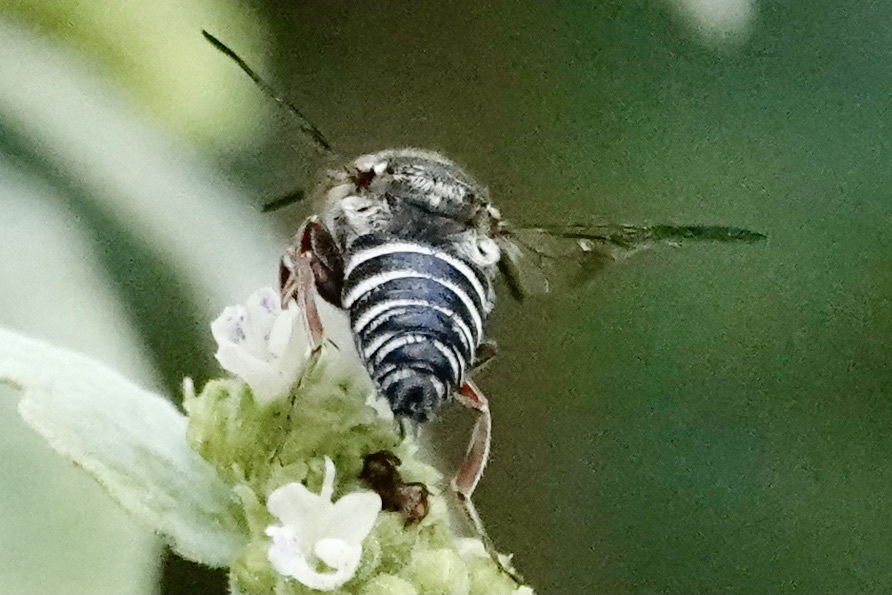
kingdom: Animalia
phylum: Arthropoda
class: Insecta
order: Hymenoptera
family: Megachilidae
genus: Coelioxys
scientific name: Coelioxys sayi
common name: Say's cuckoo leaf-cutter bee
